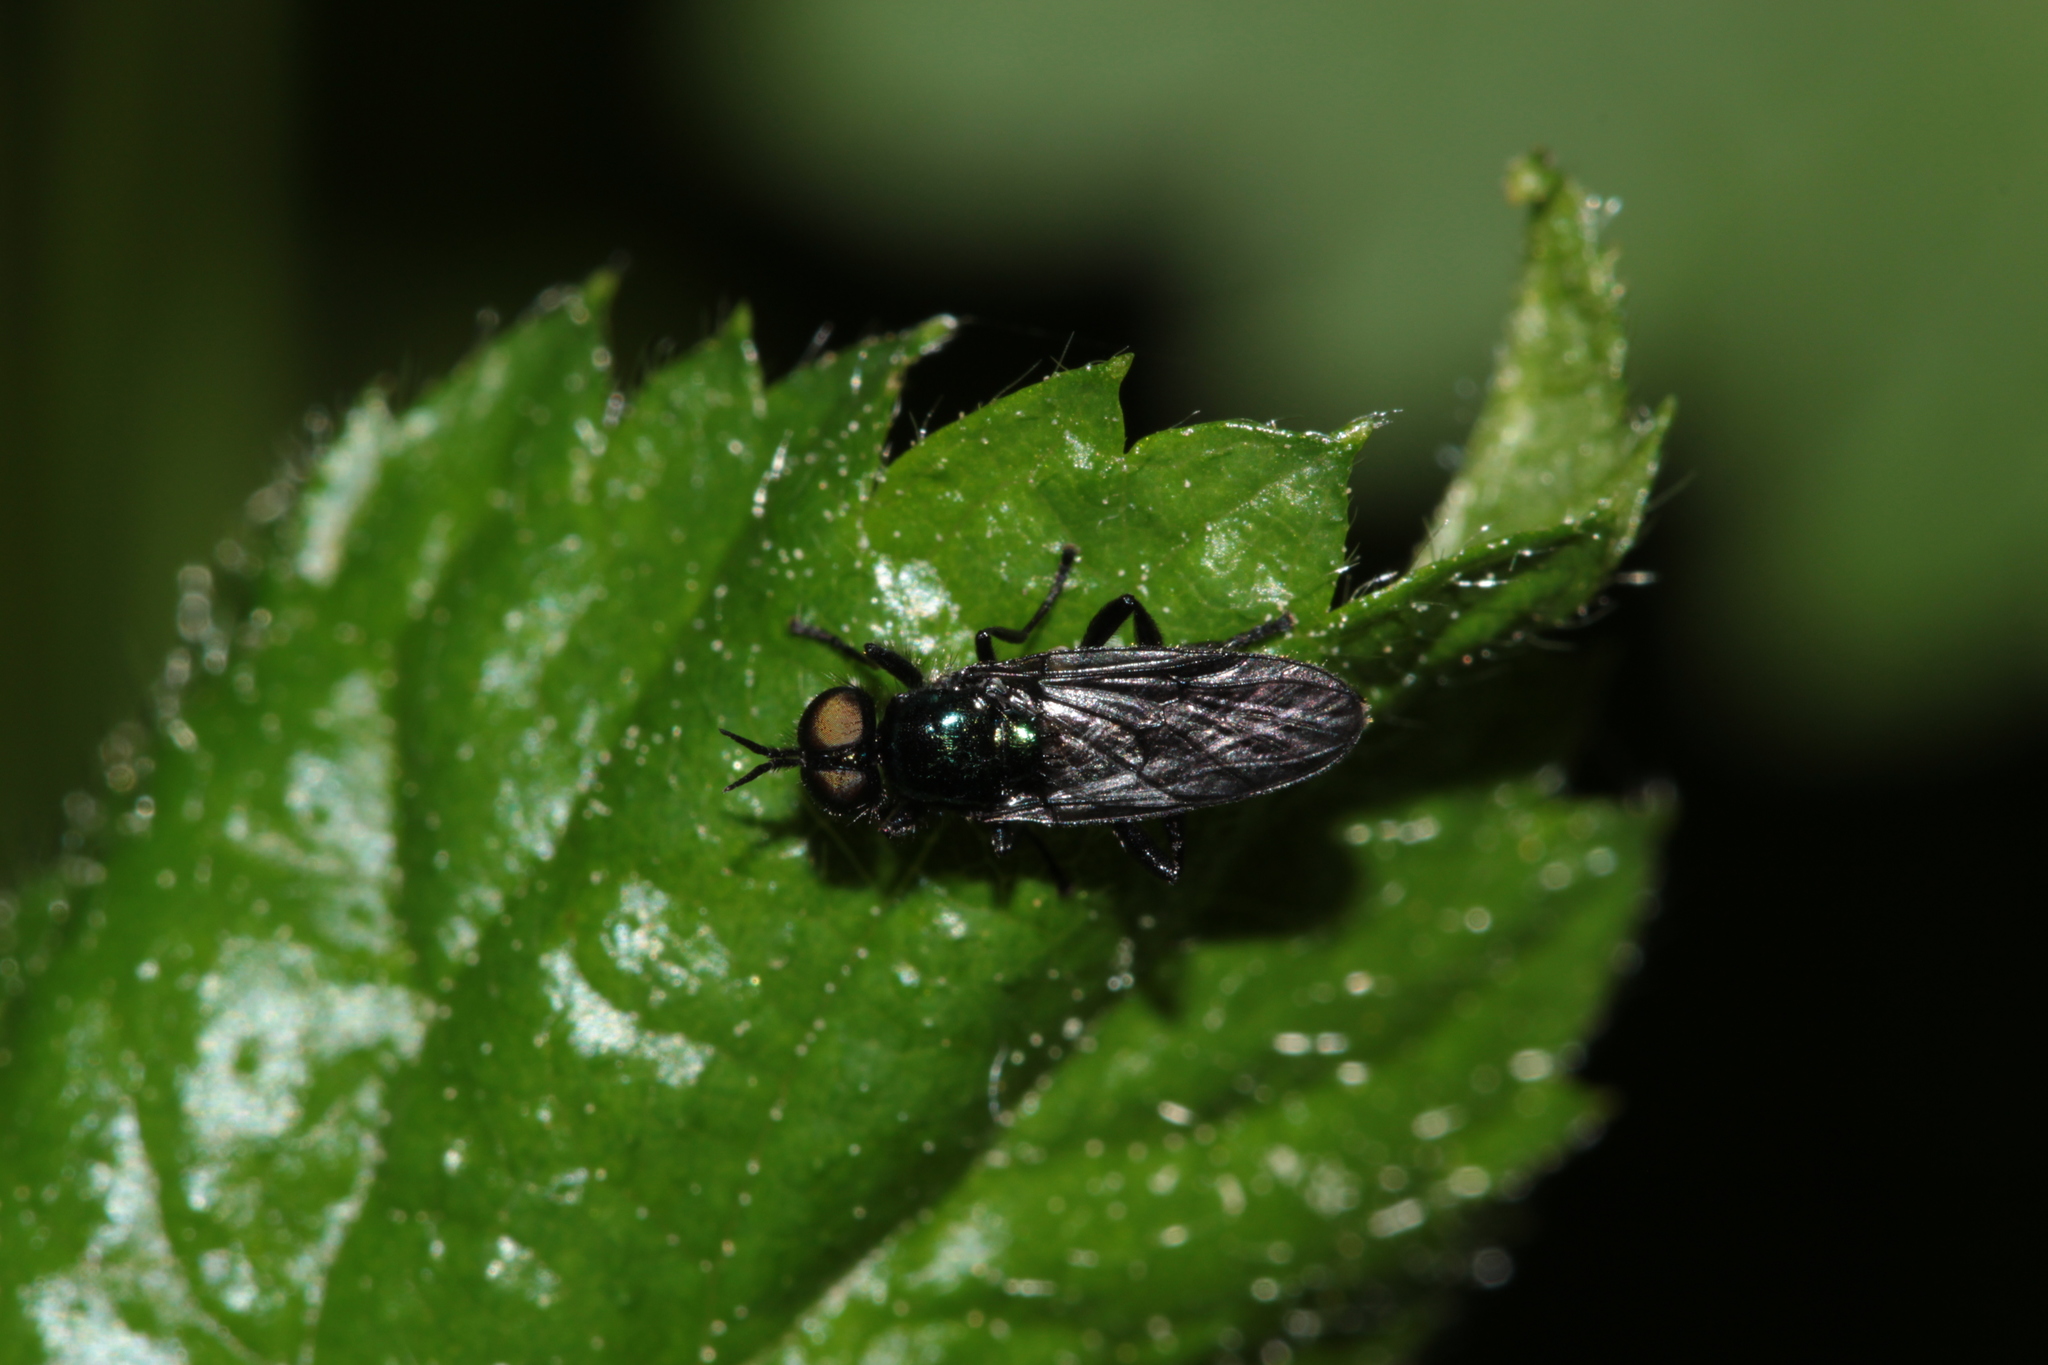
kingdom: Animalia
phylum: Arthropoda
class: Insecta
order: Diptera
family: Stratiomyidae
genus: Actina
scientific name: Actina chalybea
